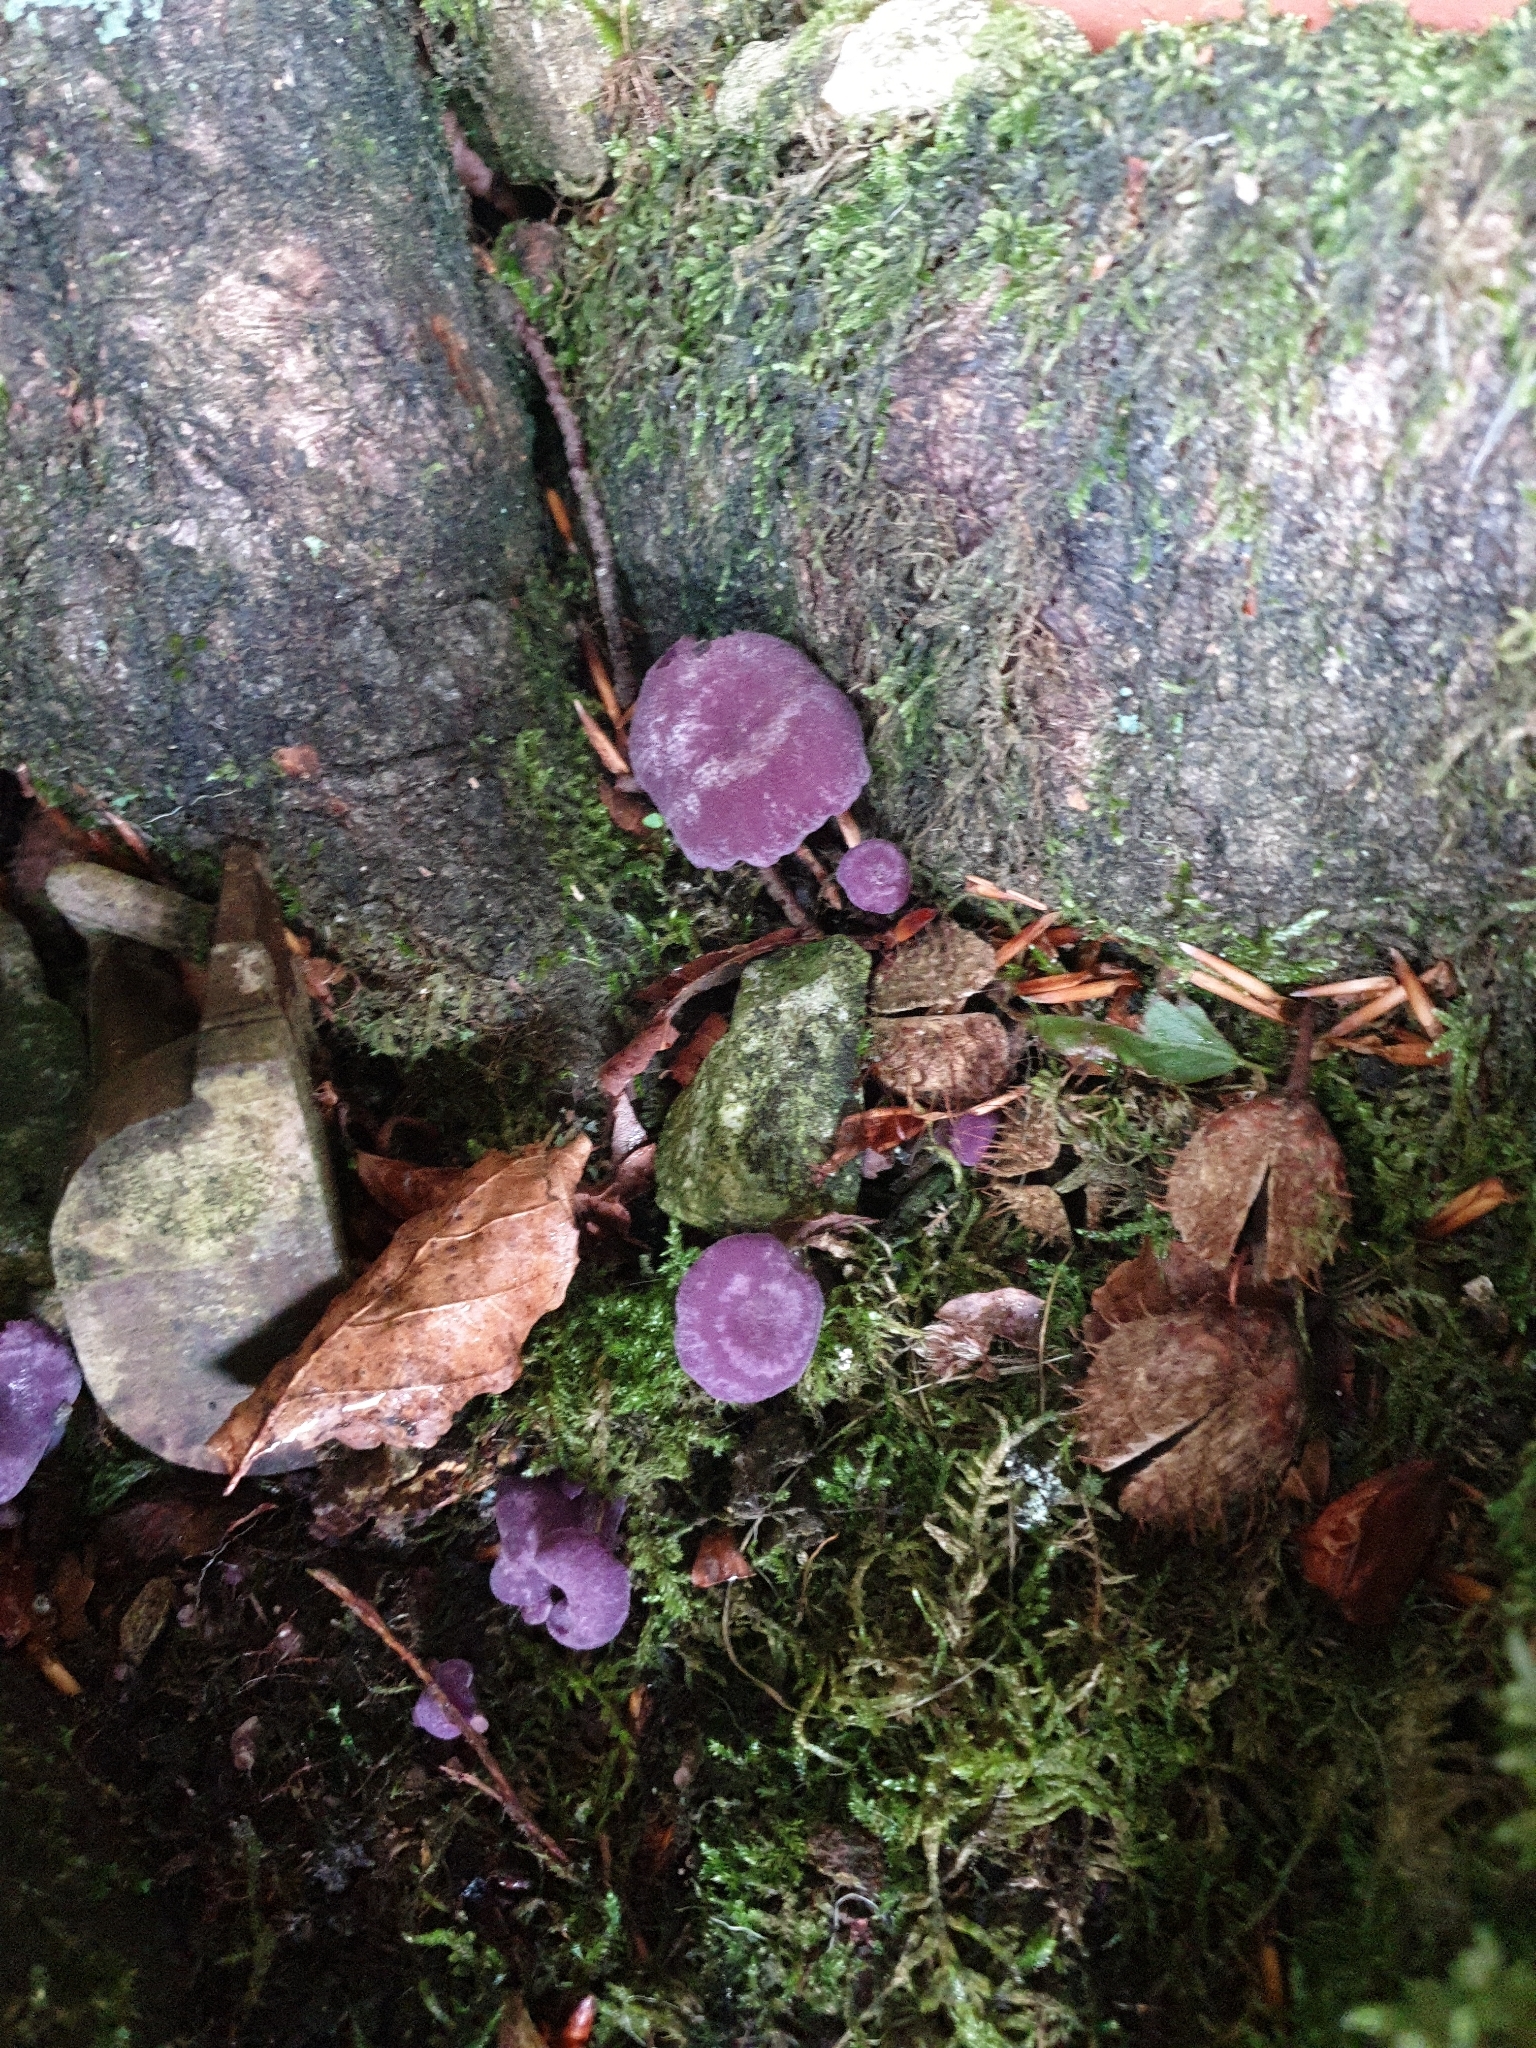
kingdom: Fungi
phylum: Basidiomycota
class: Agaricomycetes
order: Agaricales
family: Hydnangiaceae
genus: Laccaria
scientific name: Laccaria amethystina
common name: Amethyst deceiver
